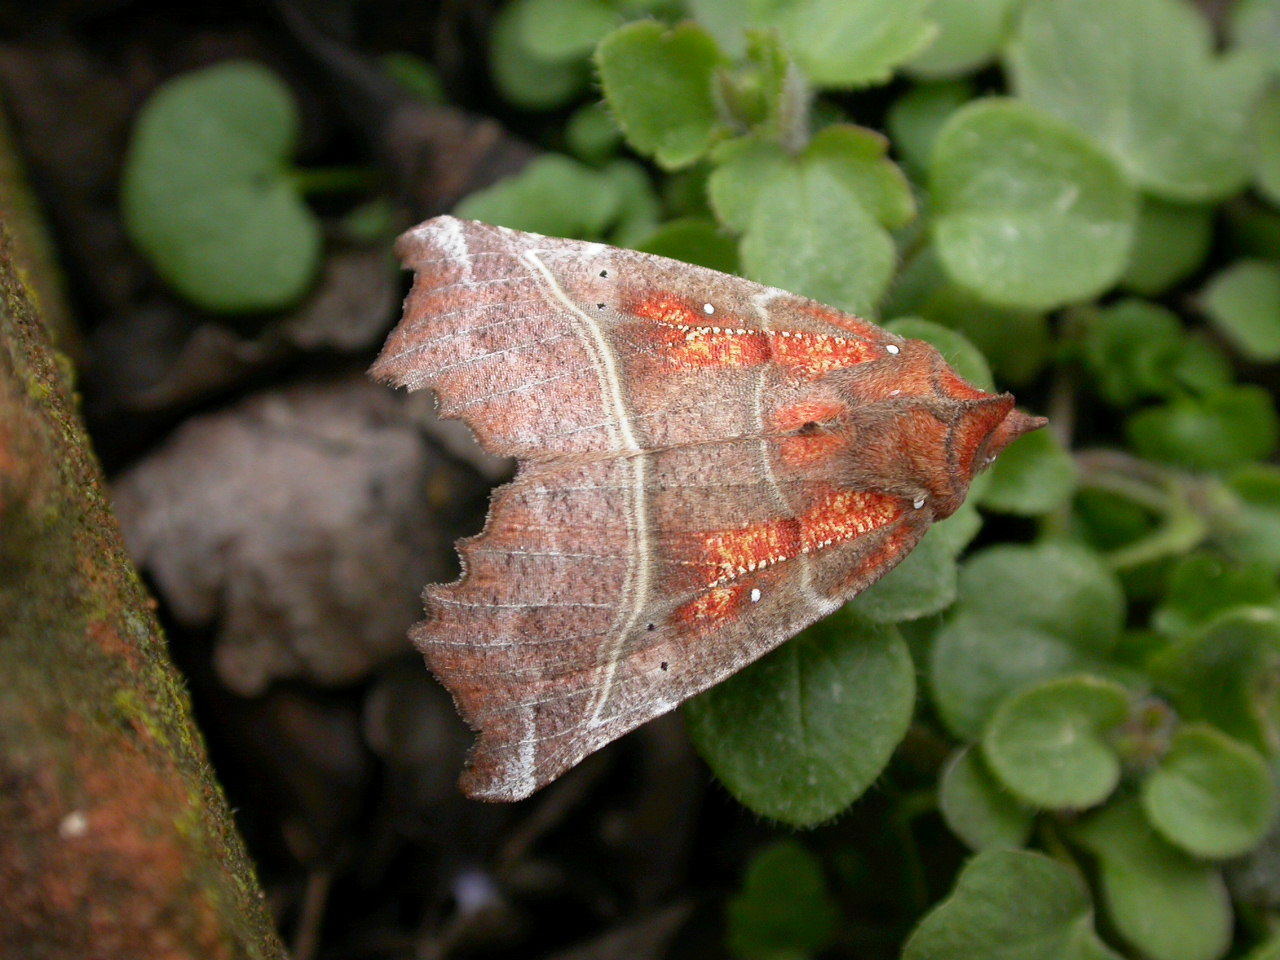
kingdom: Animalia
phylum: Arthropoda
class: Insecta
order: Lepidoptera
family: Erebidae
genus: Scoliopteryx
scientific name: Scoliopteryx libatrix
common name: Herald
